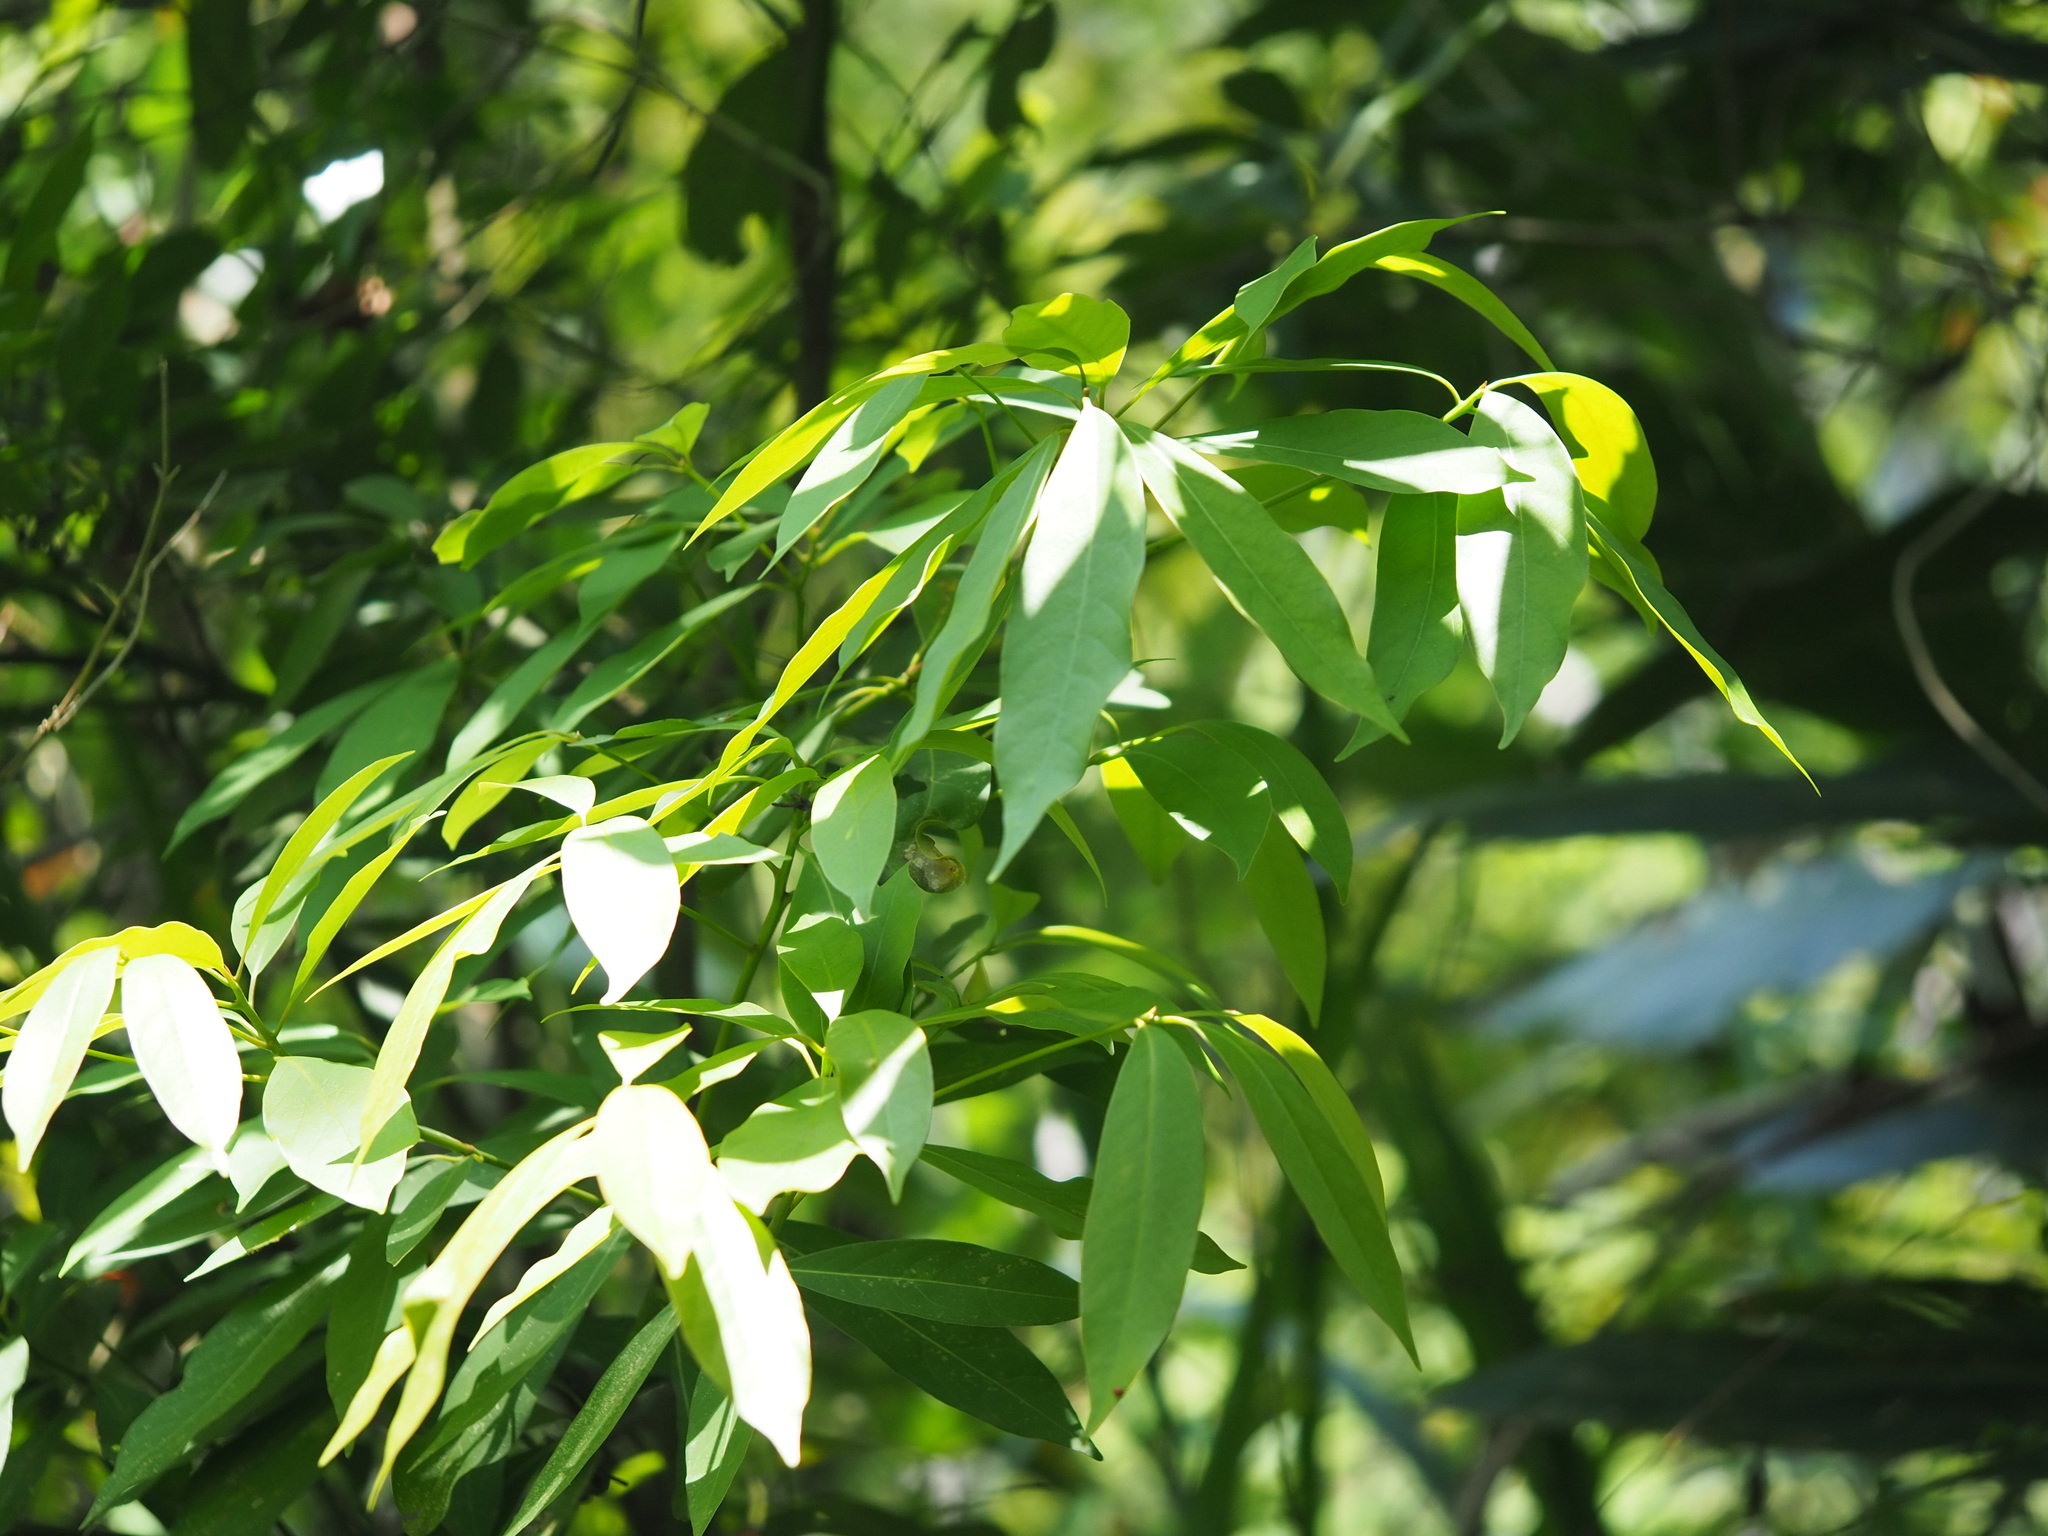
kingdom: Plantae
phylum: Tracheophyta
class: Magnoliopsida
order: Laurales
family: Lauraceae
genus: Machilus
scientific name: Machilus zuihoensis
